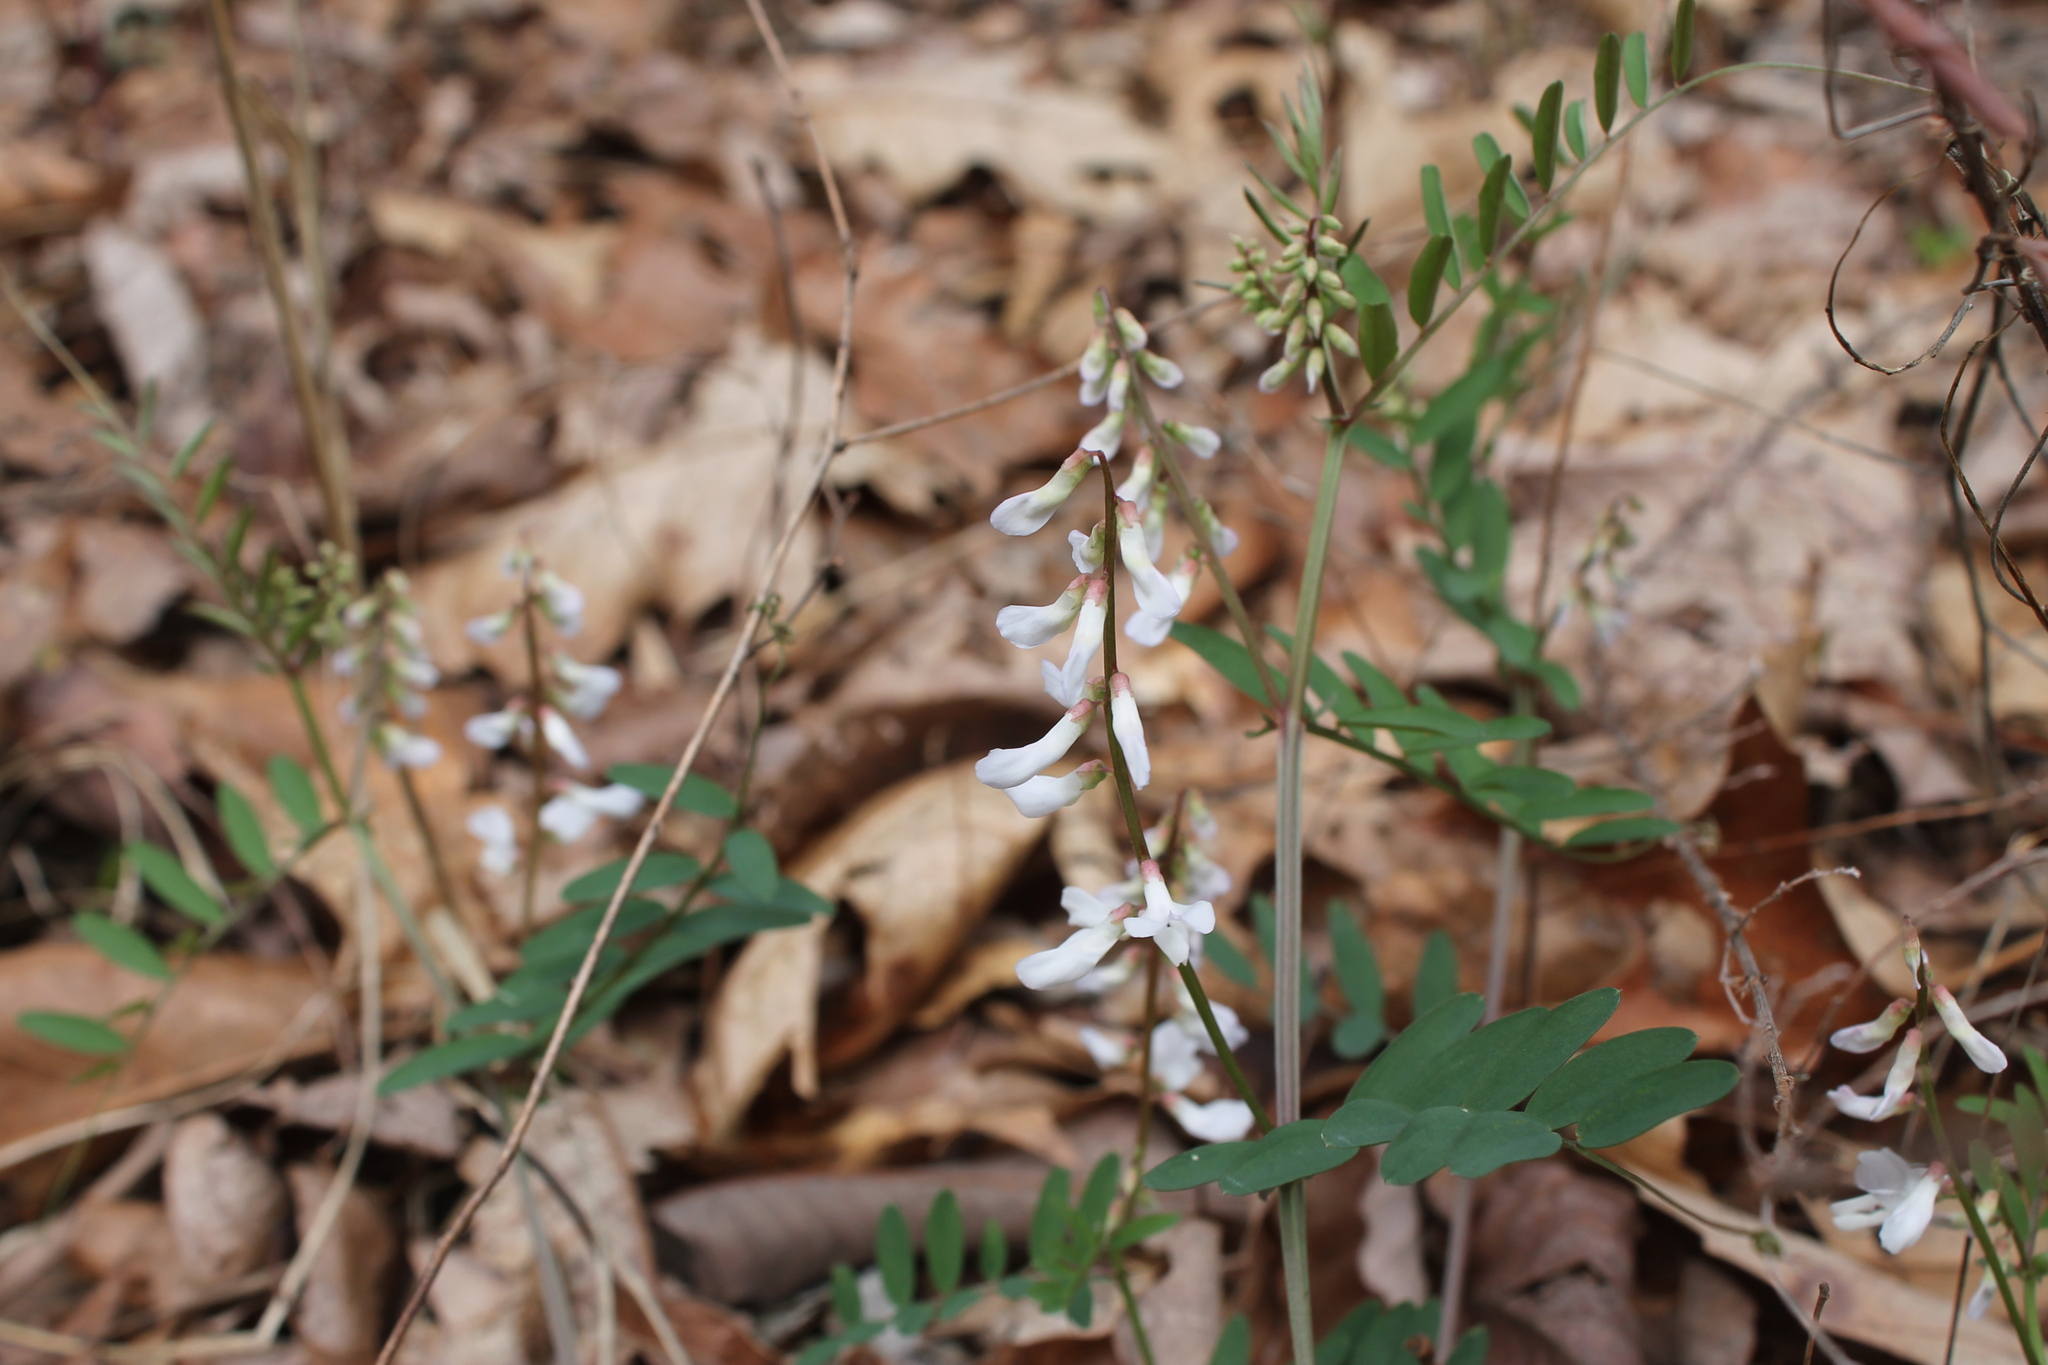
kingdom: Plantae
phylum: Tracheophyta
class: Magnoliopsida
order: Fabales
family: Fabaceae
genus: Vicia
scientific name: Vicia caroliniana
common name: Carolina vetch
